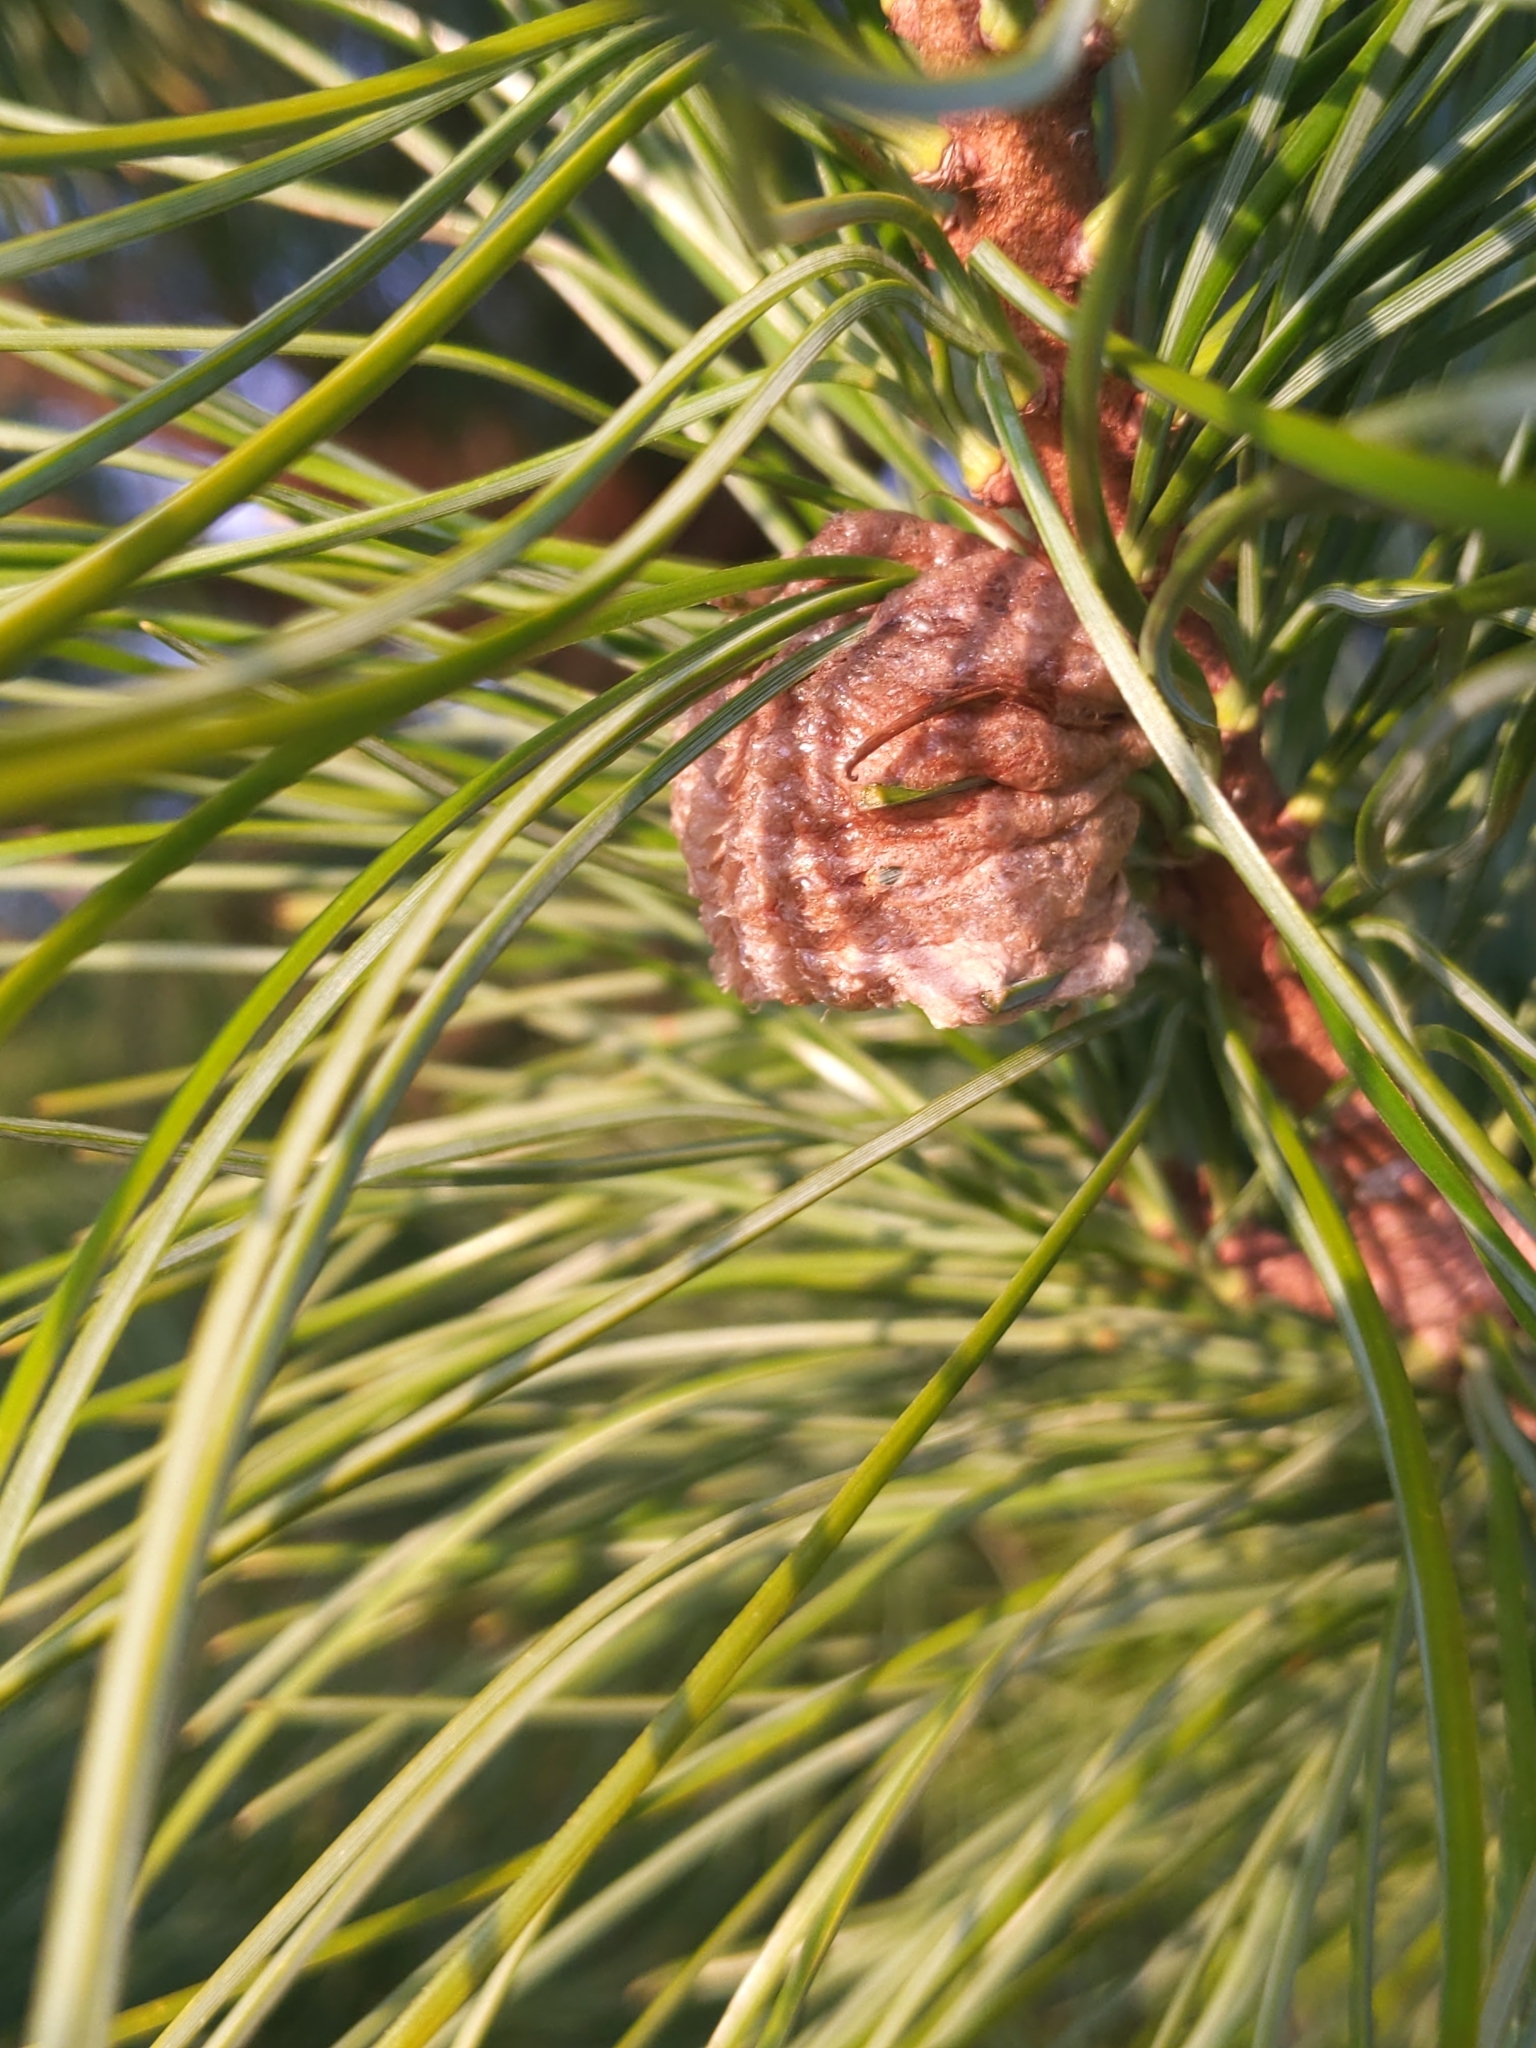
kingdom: Animalia
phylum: Arthropoda
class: Insecta
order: Mantodea
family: Mantidae
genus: Tenodera
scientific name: Tenodera sinensis
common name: Chinese mantis
